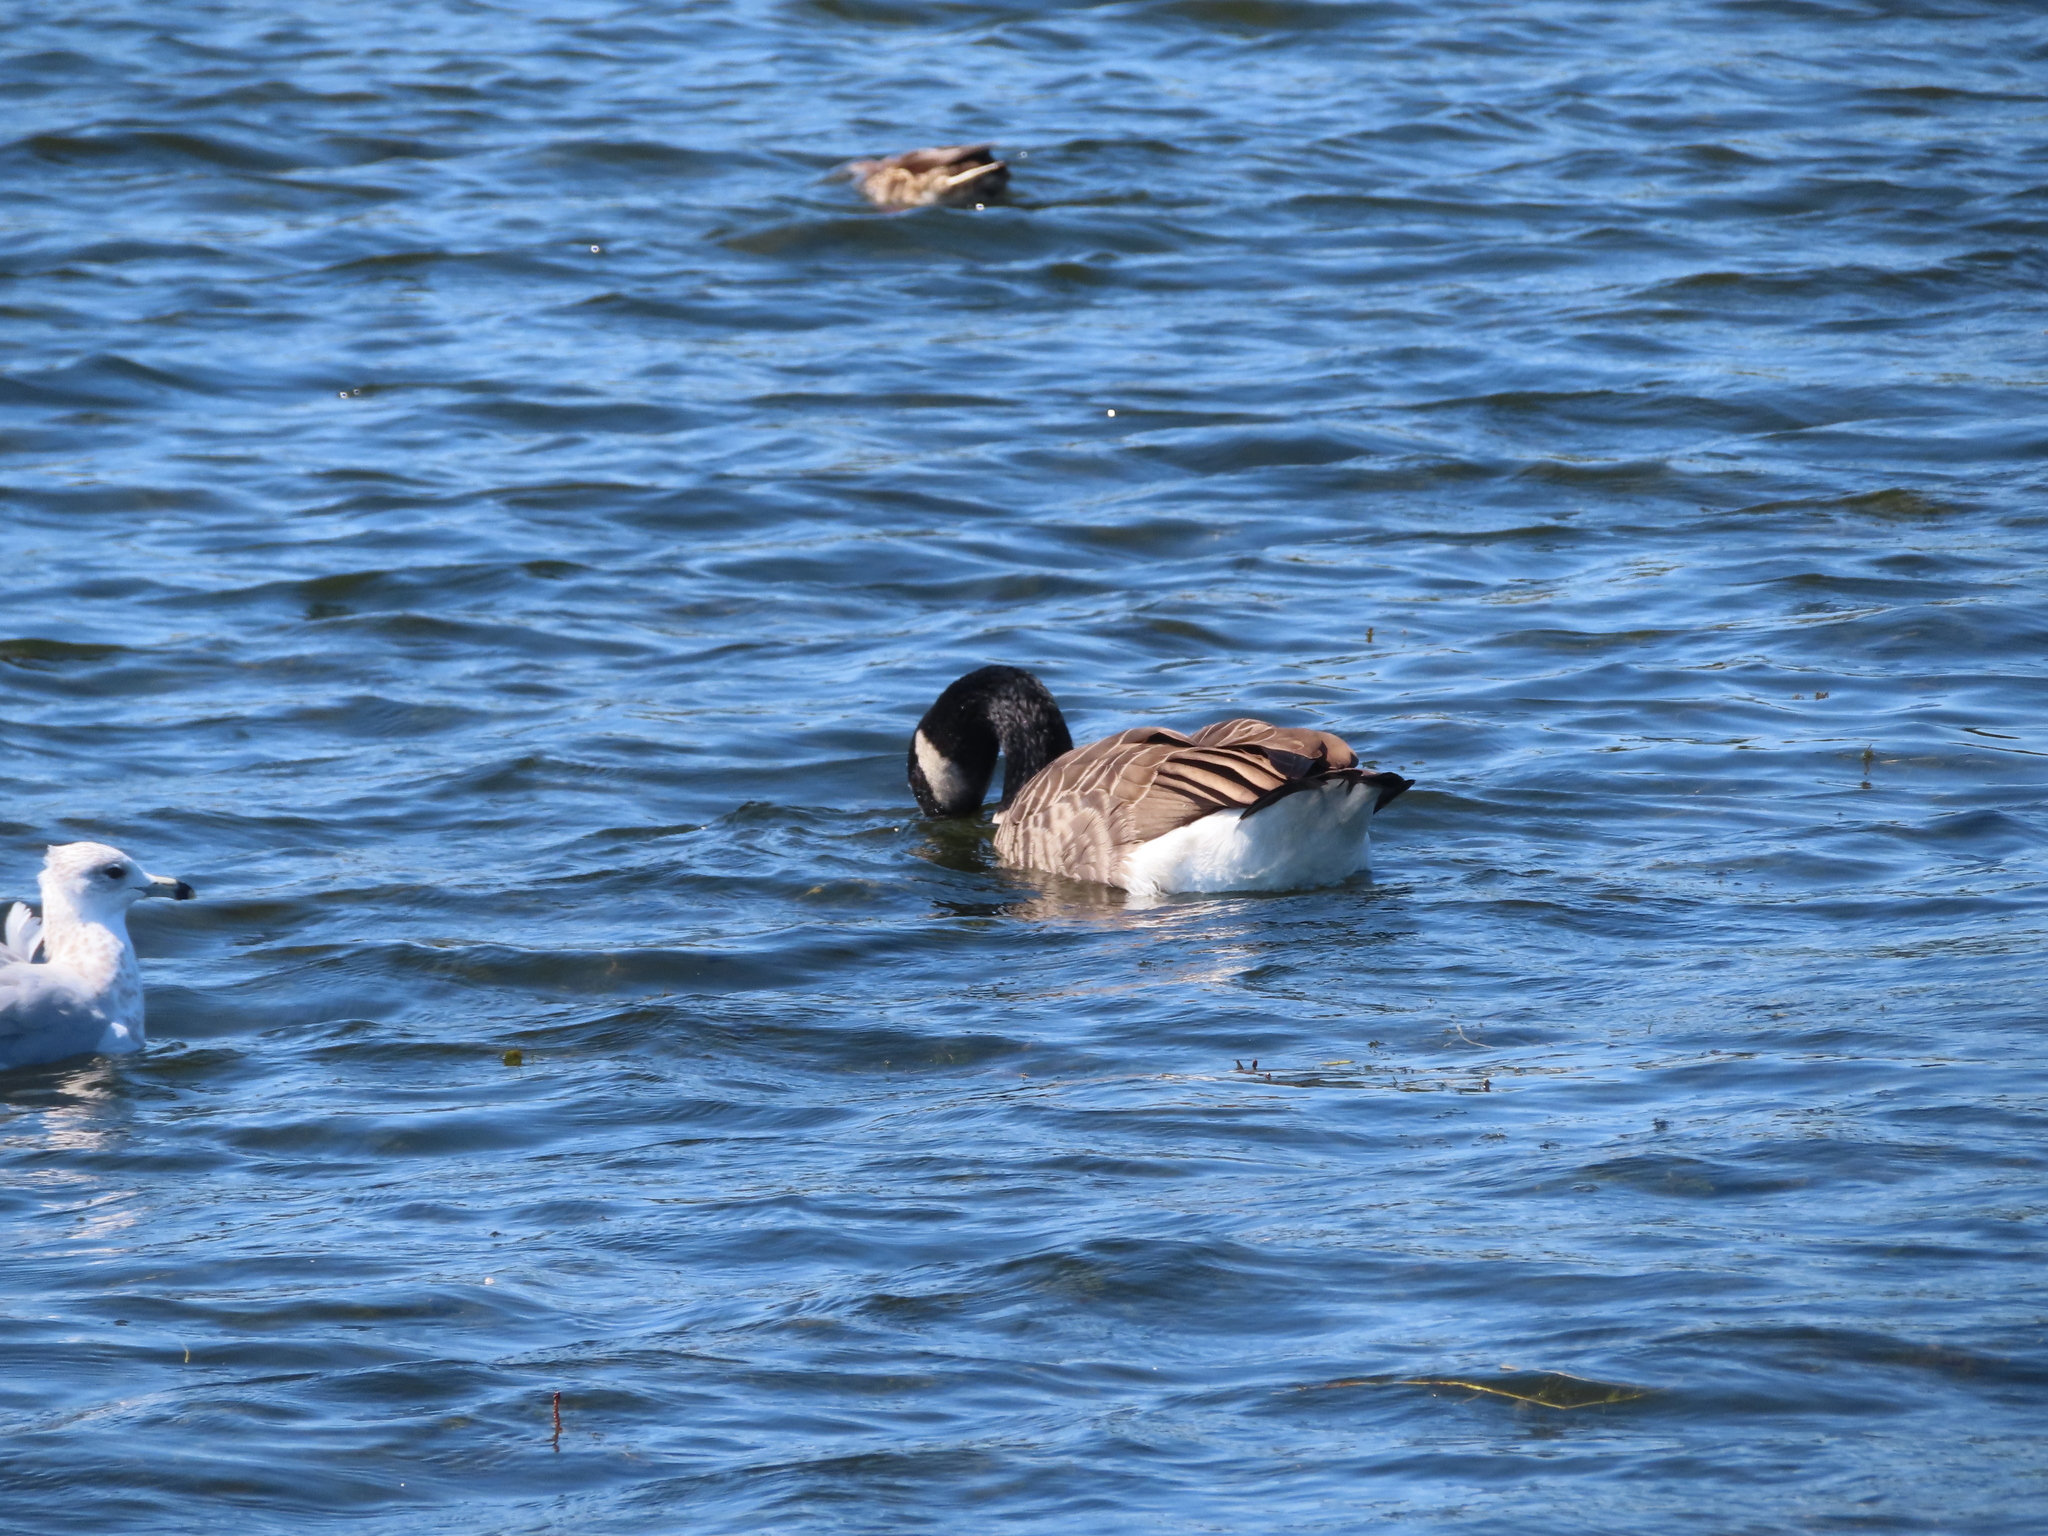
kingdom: Animalia
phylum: Chordata
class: Aves
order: Anseriformes
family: Anatidae
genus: Branta
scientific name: Branta canadensis
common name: Canada goose
